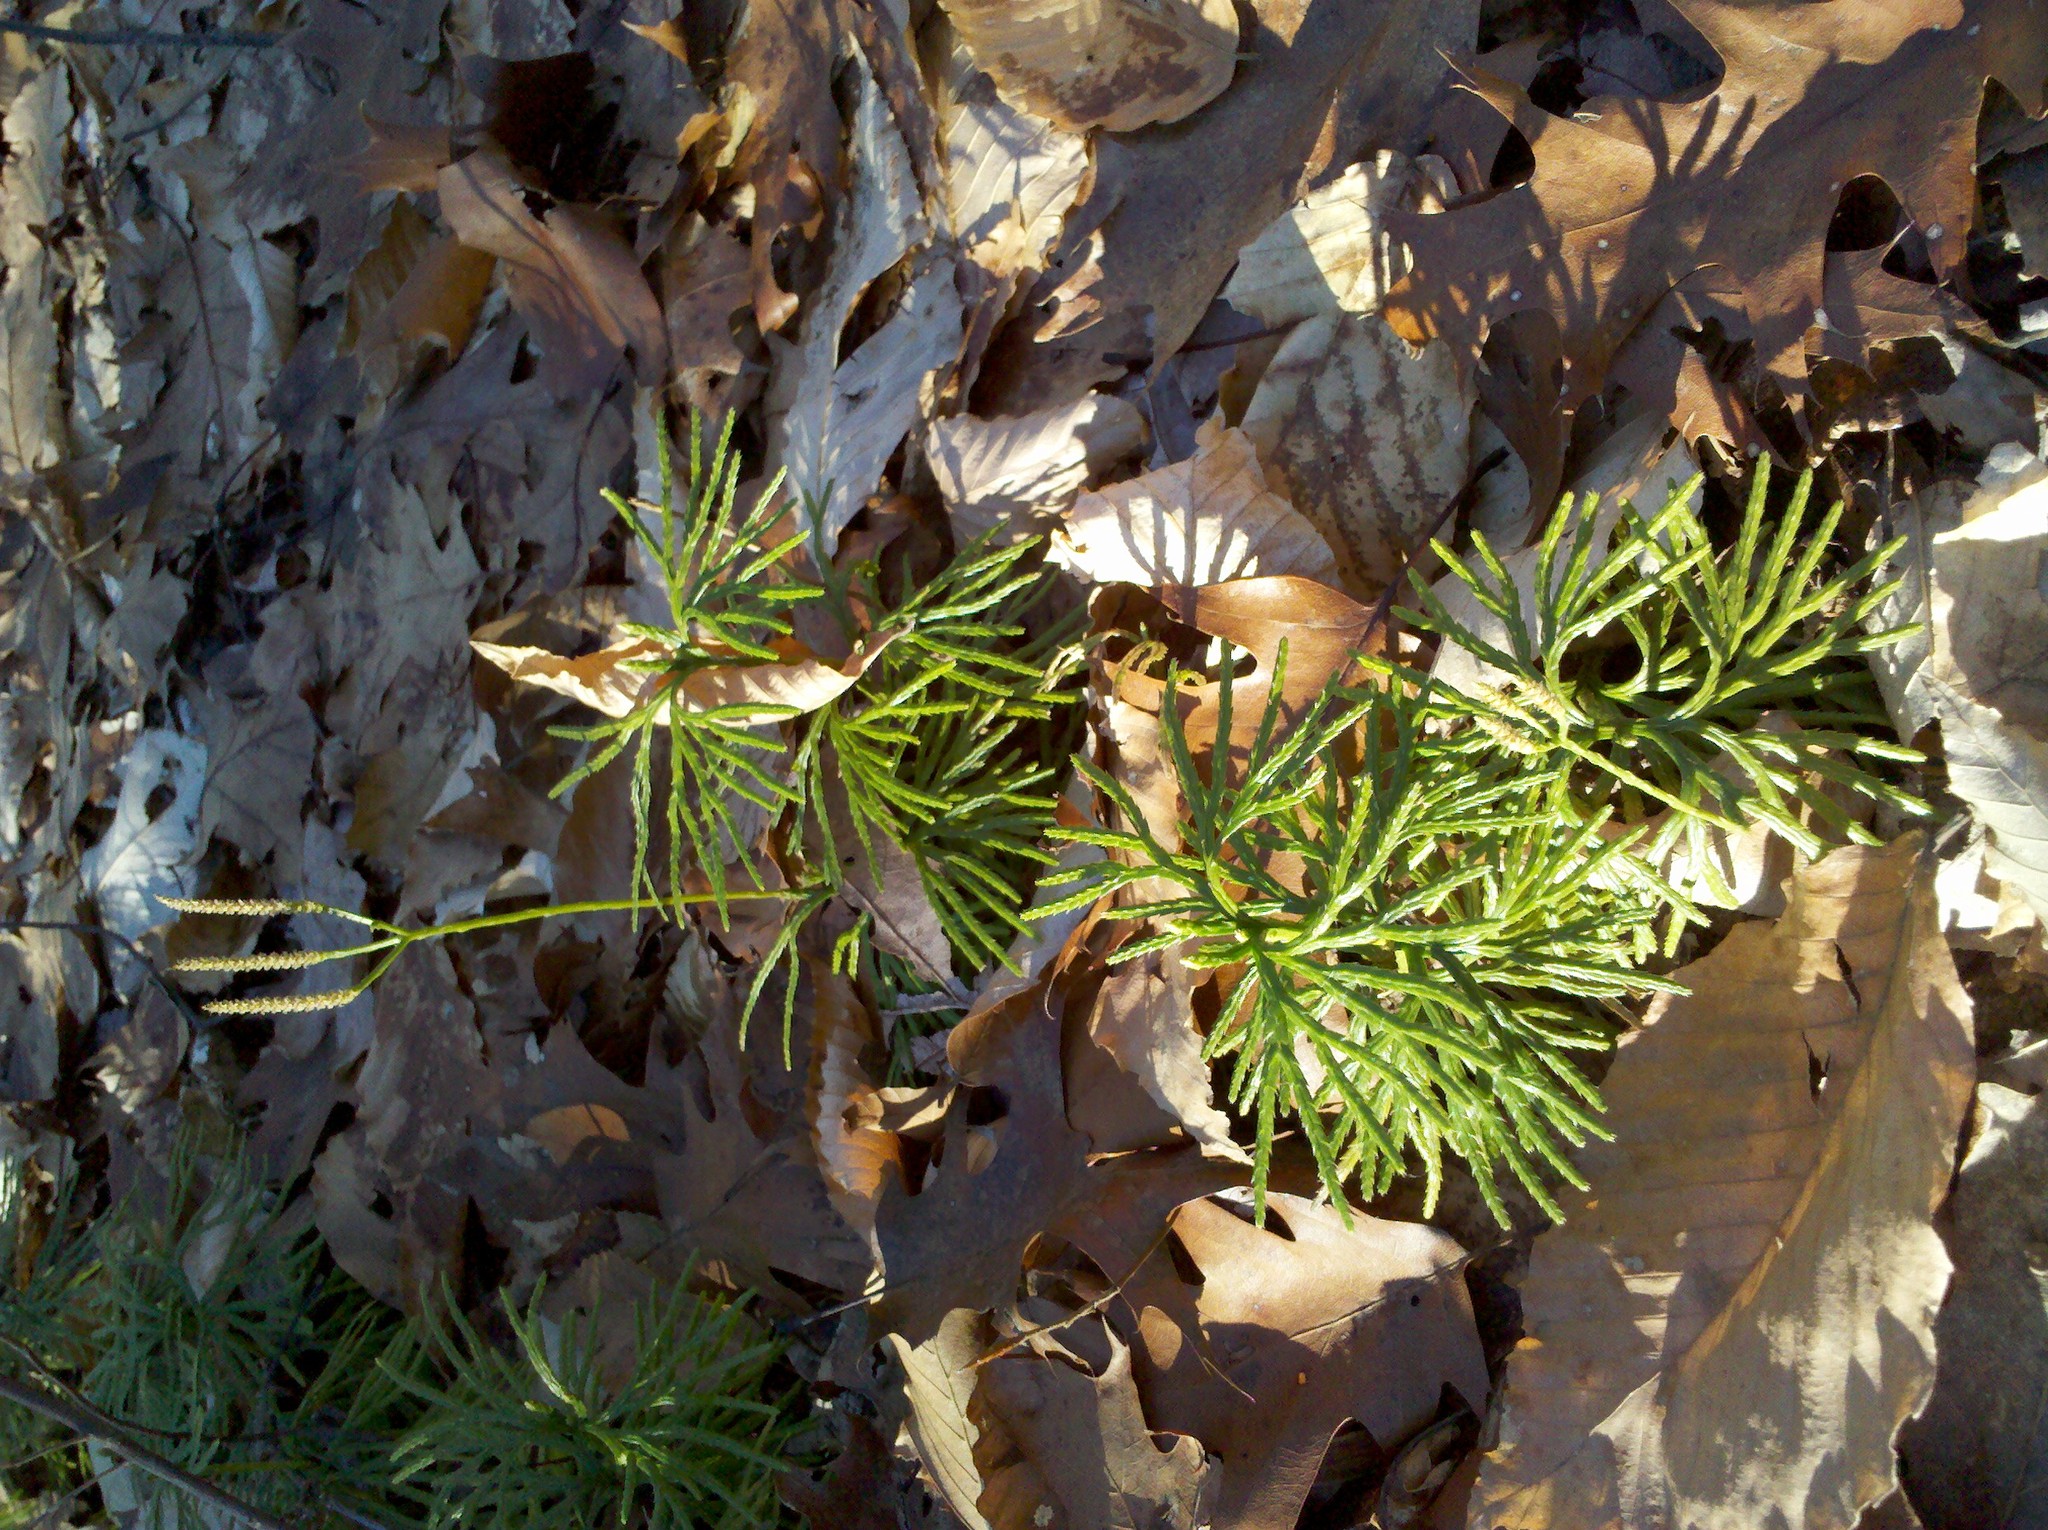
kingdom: Plantae
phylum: Tracheophyta
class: Lycopodiopsida
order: Lycopodiales
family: Lycopodiaceae
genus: Diphasiastrum
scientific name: Diphasiastrum digitatum
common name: Southern running-pine
